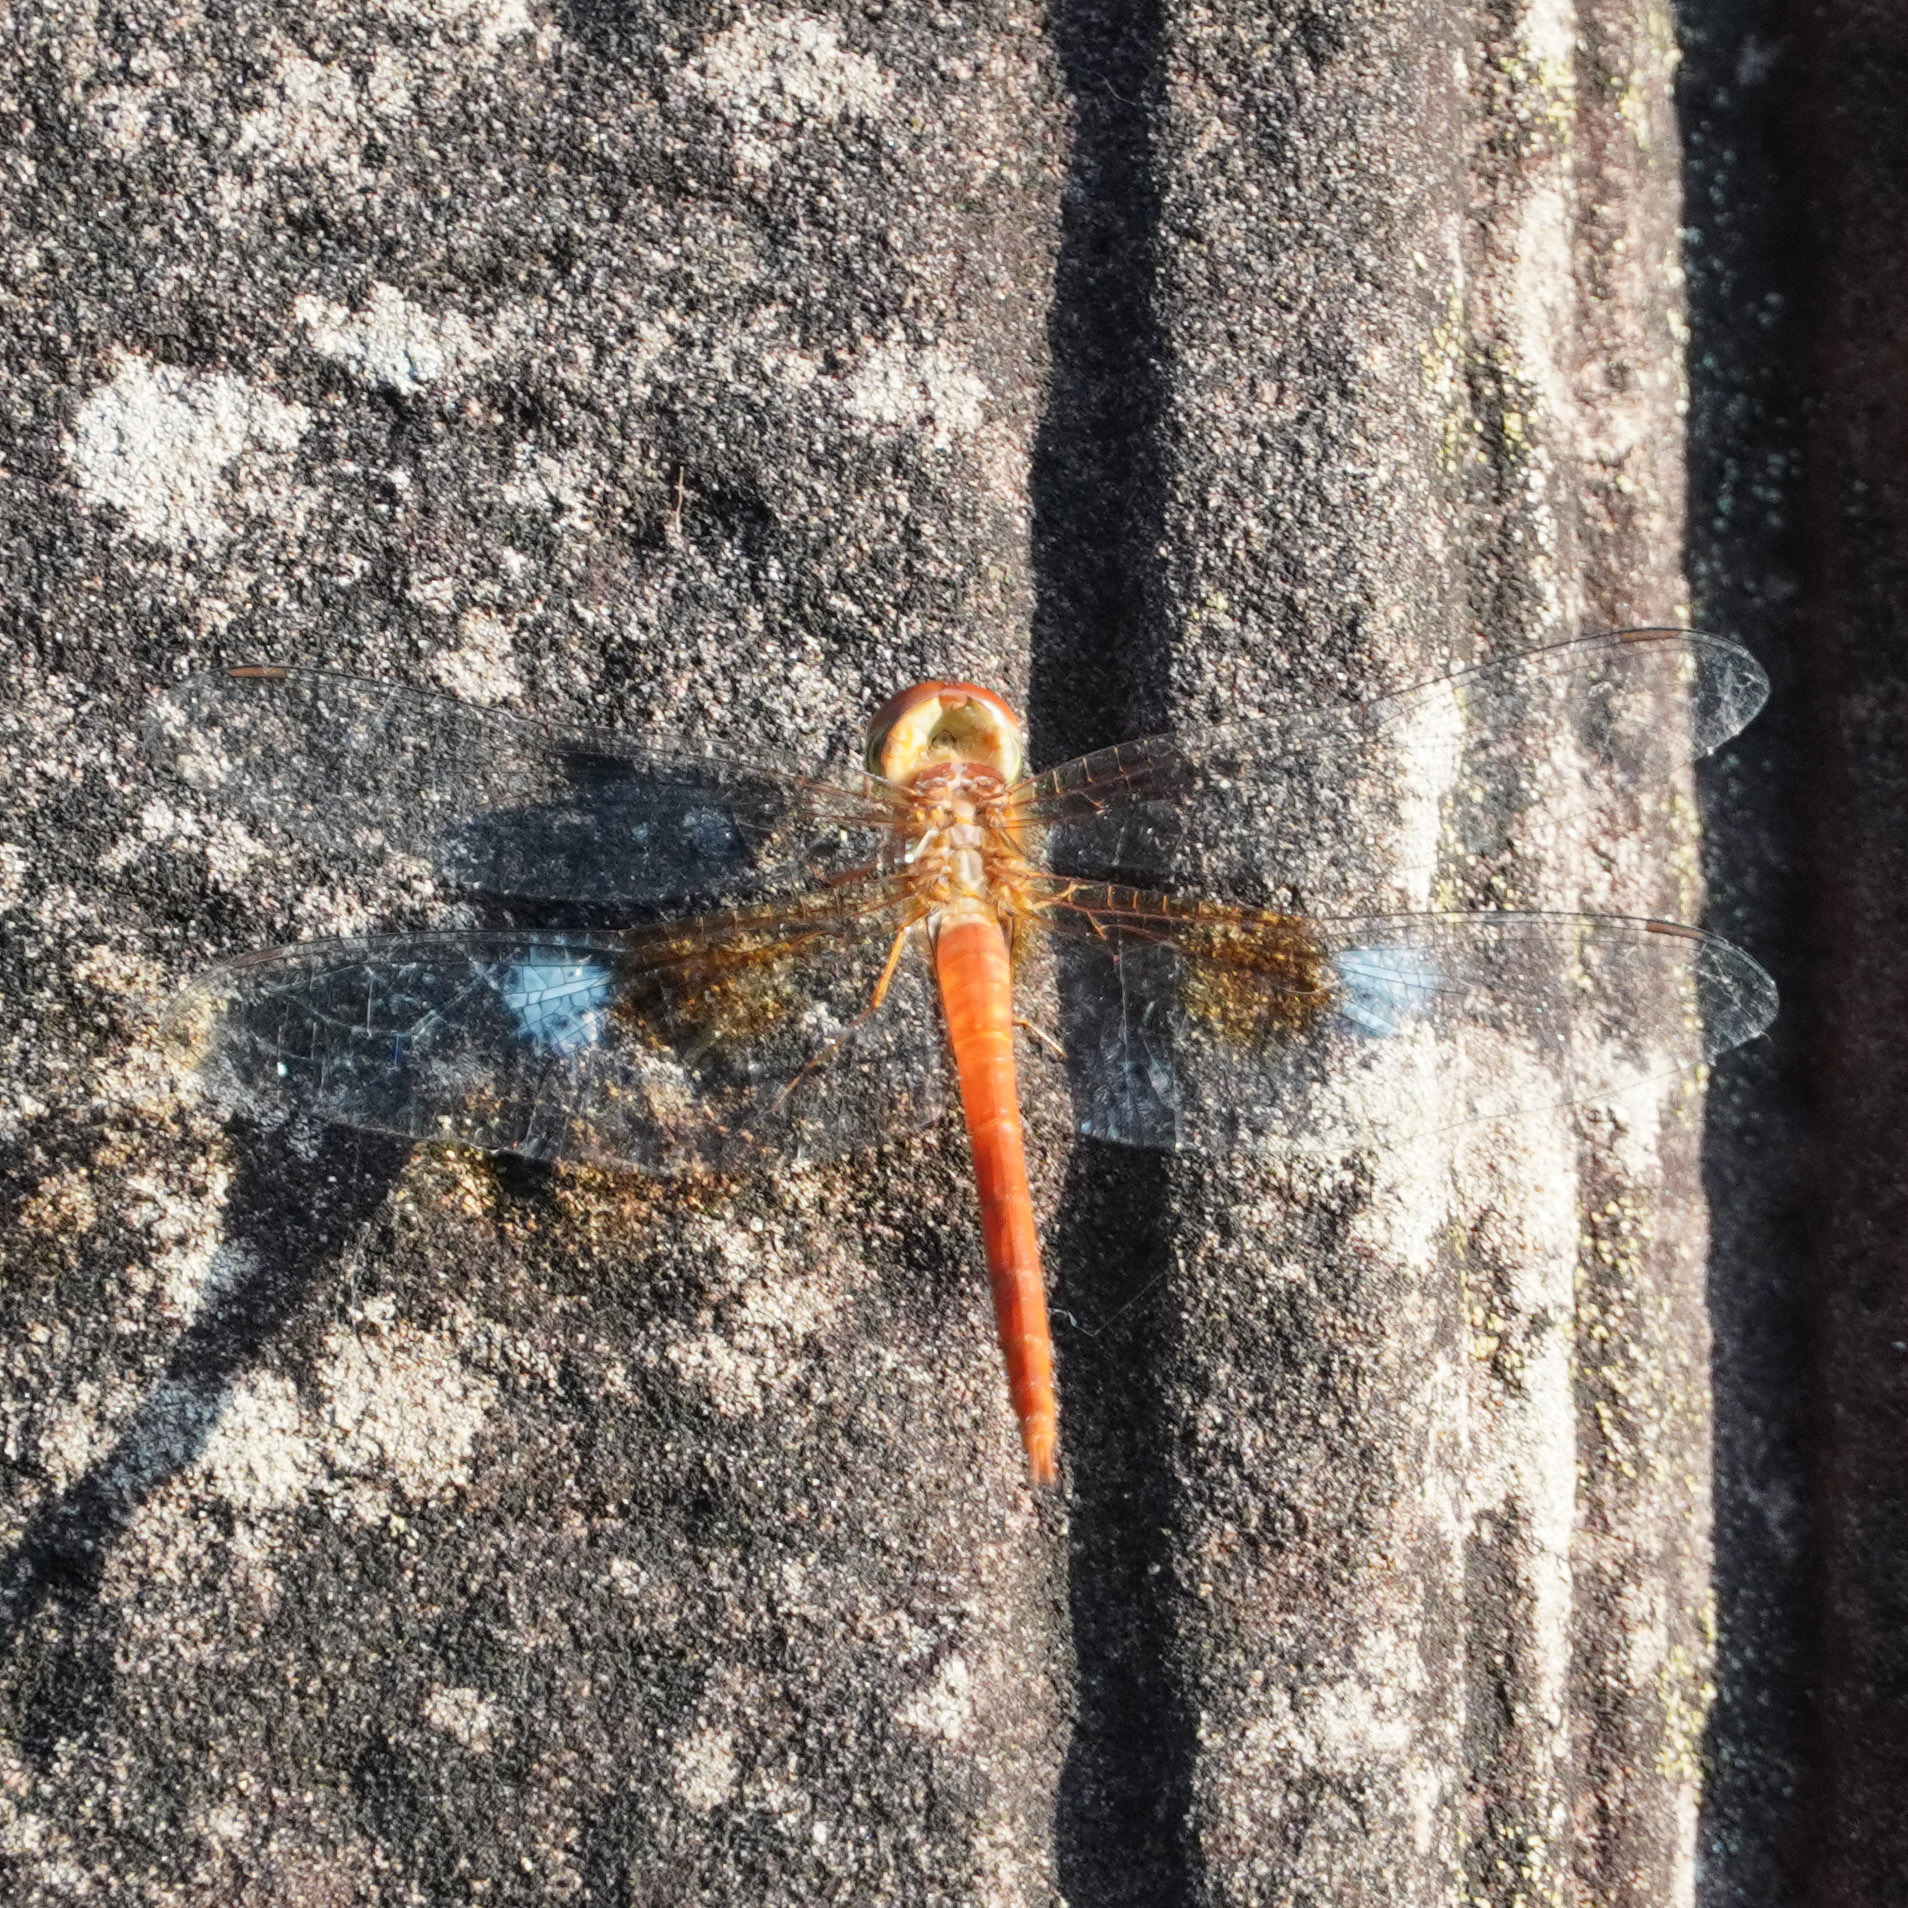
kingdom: Animalia
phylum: Arthropoda
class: Insecta
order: Odonata
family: Libellulidae
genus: Tholymis
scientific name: Tholymis tillarga
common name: Coral-tailed cloud wing
